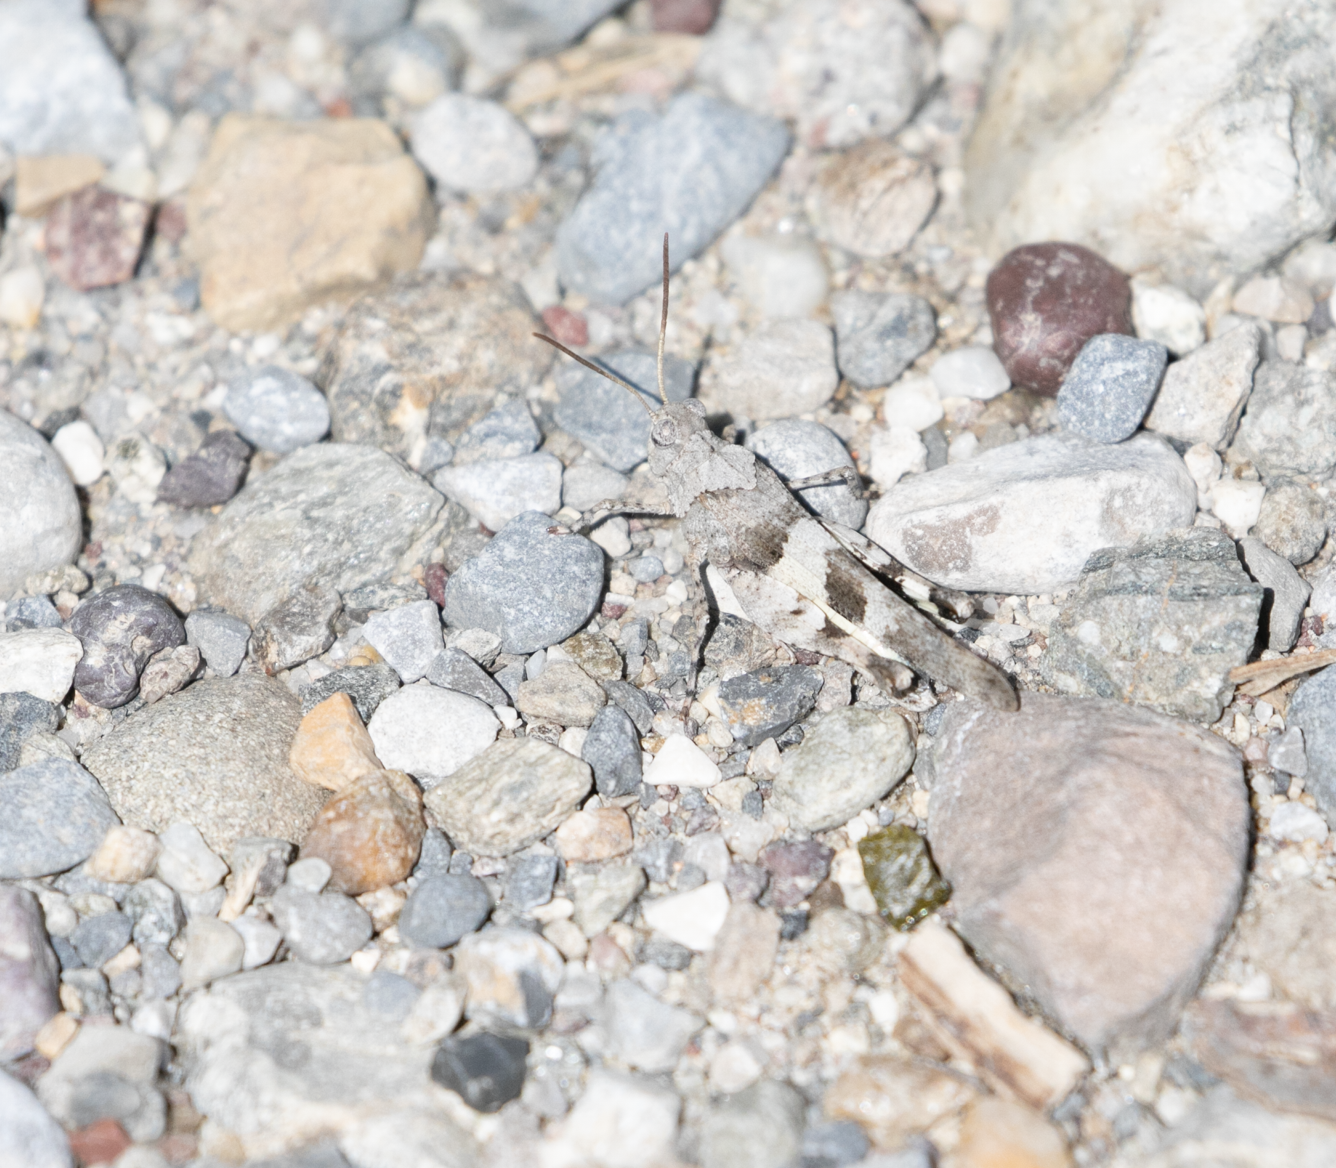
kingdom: Animalia
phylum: Arthropoda
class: Insecta
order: Orthoptera
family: Acrididae
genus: Oedipoda
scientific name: Oedipoda caerulescens
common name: Blue-winged grasshopper
